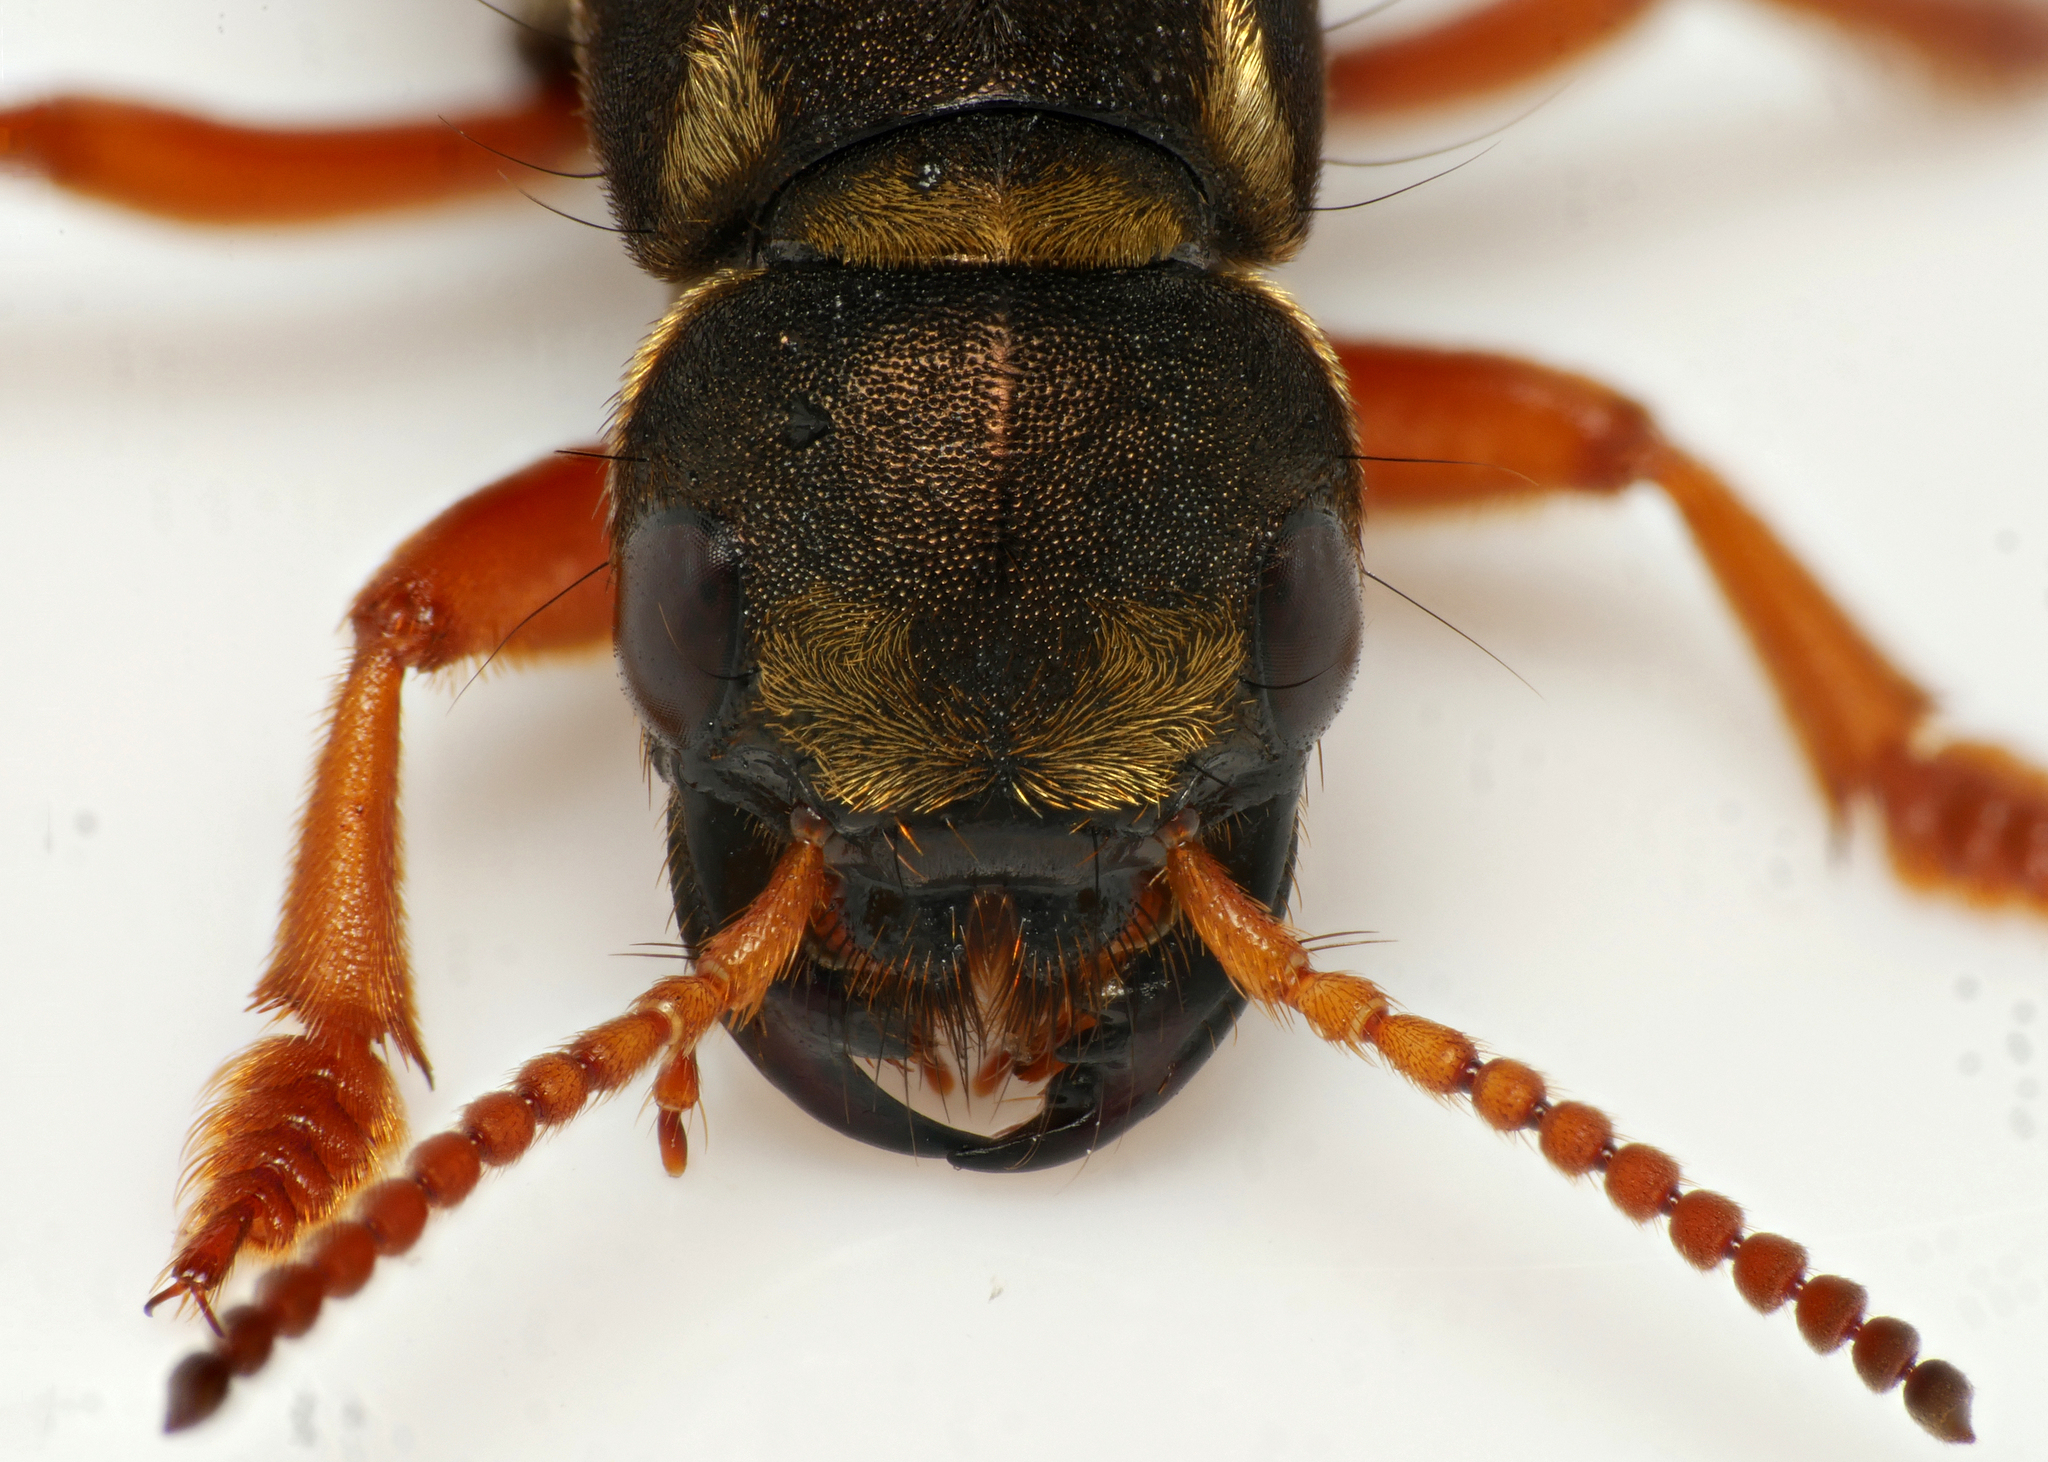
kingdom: Animalia
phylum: Arthropoda
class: Insecta
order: Coleoptera
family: Staphylinidae
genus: Staphylinus
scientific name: Staphylinus caesareus
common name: Staph beetle
